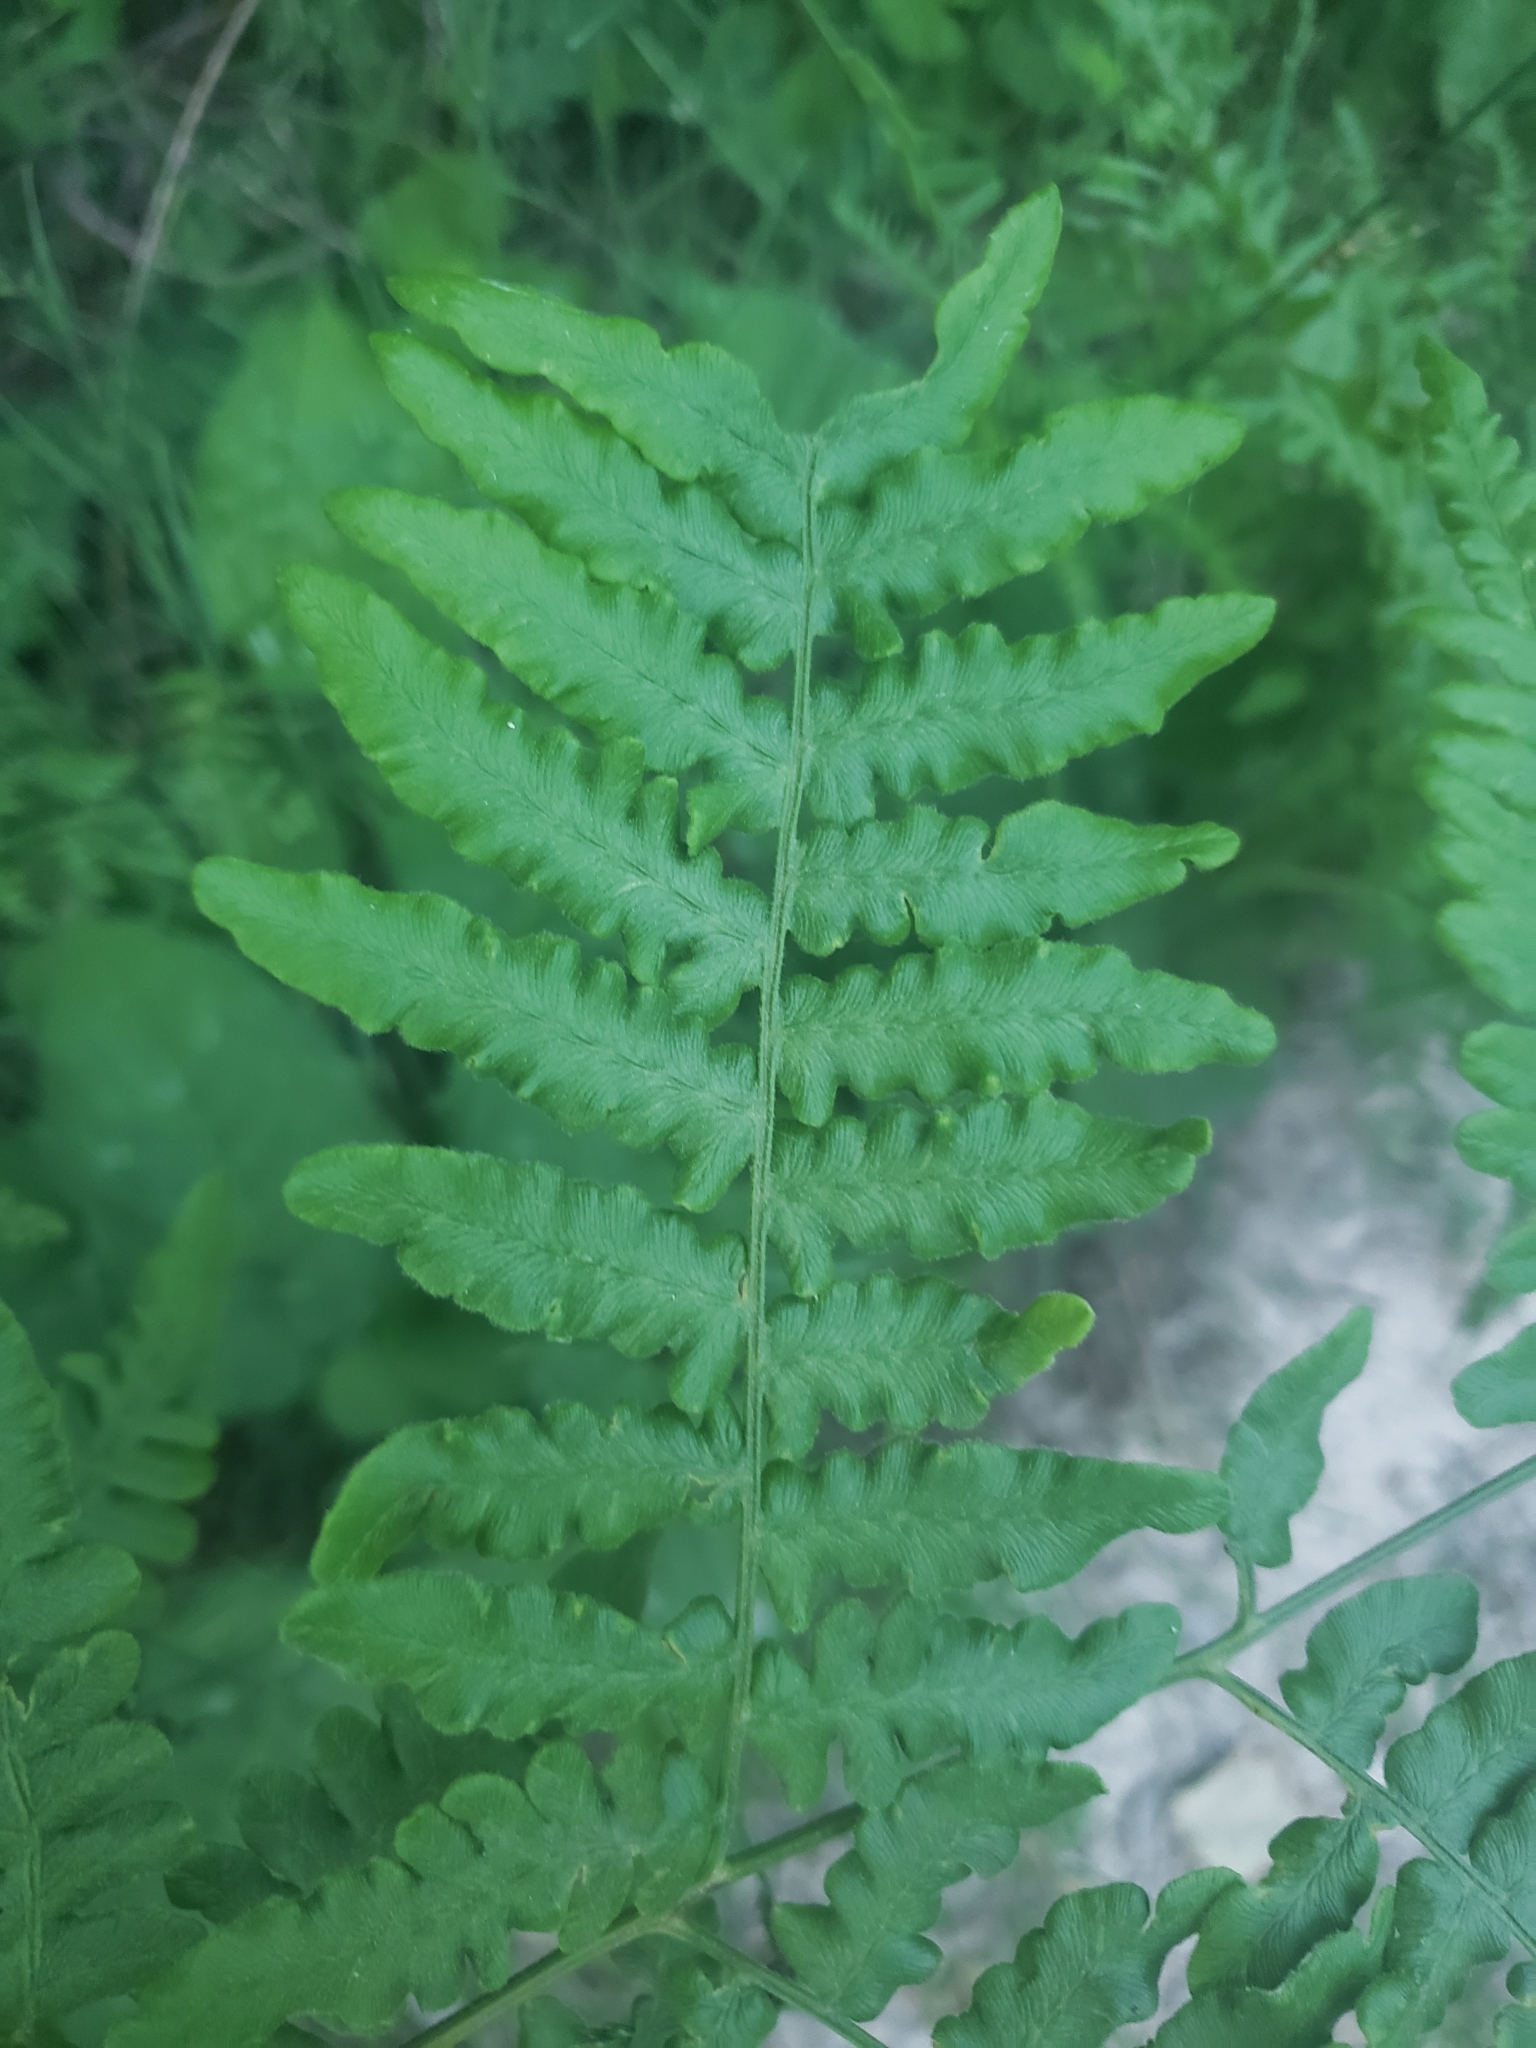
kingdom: Plantae
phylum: Tracheophyta
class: Polypodiopsida
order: Polypodiales
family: Dennstaedtiaceae
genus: Pteridium
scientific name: Pteridium aquilinum
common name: Bracken
